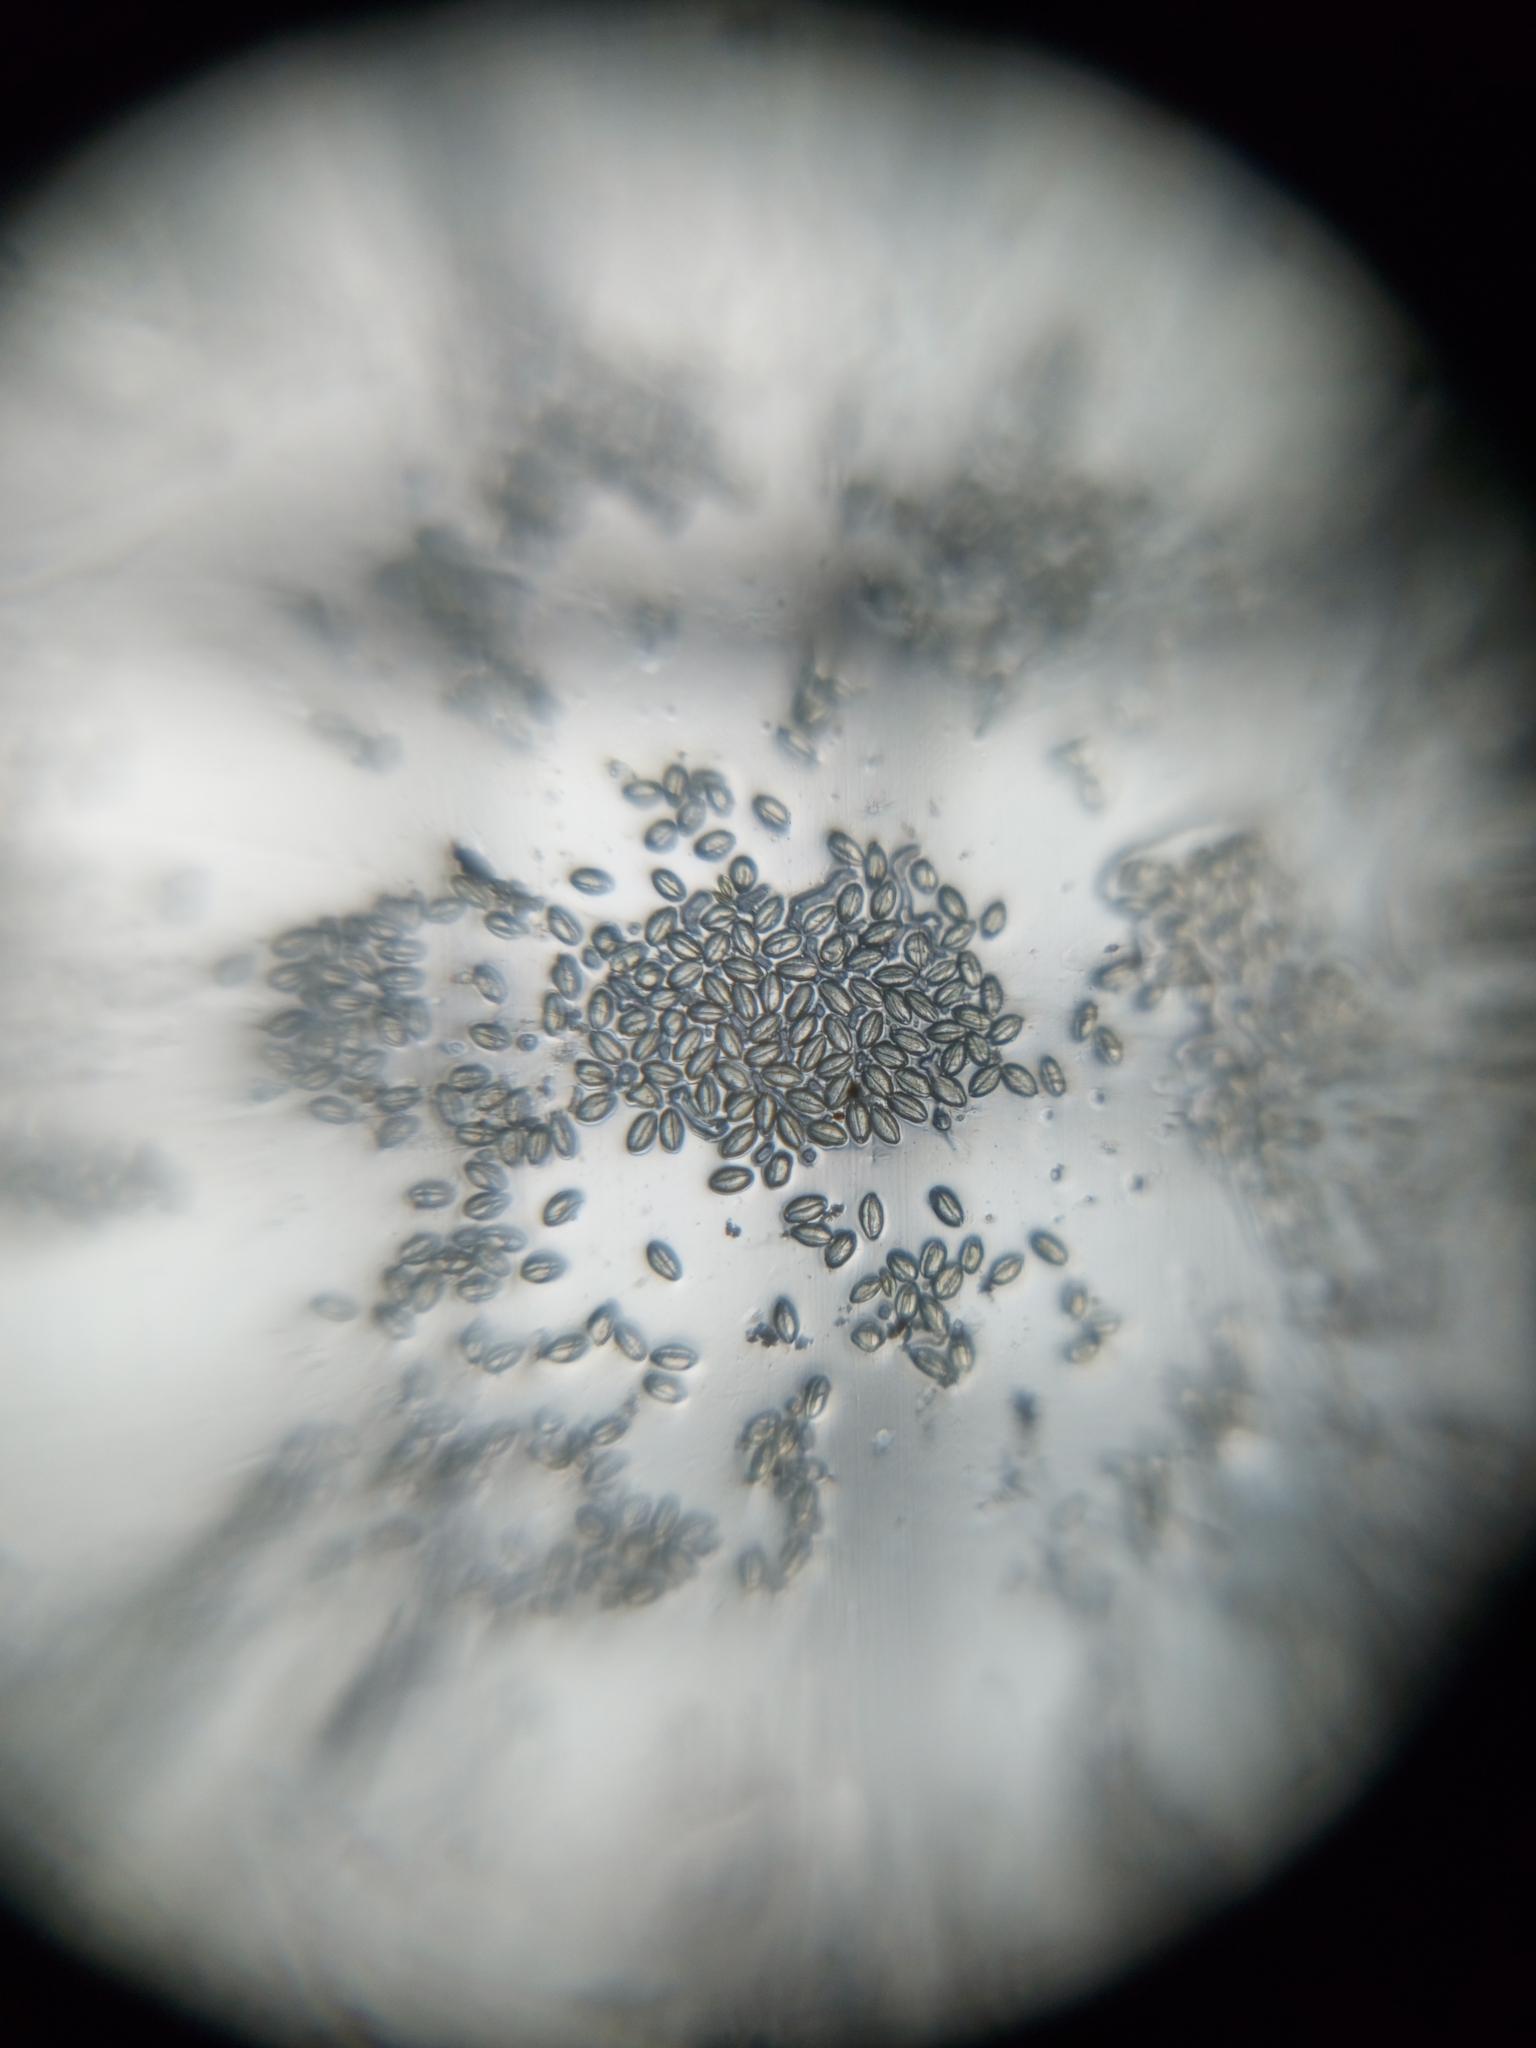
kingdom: Plantae
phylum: Tracheophyta
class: Magnoliopsida
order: Solanales
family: Solanaceae
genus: Jaltomata
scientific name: Jaltomata procumbens
